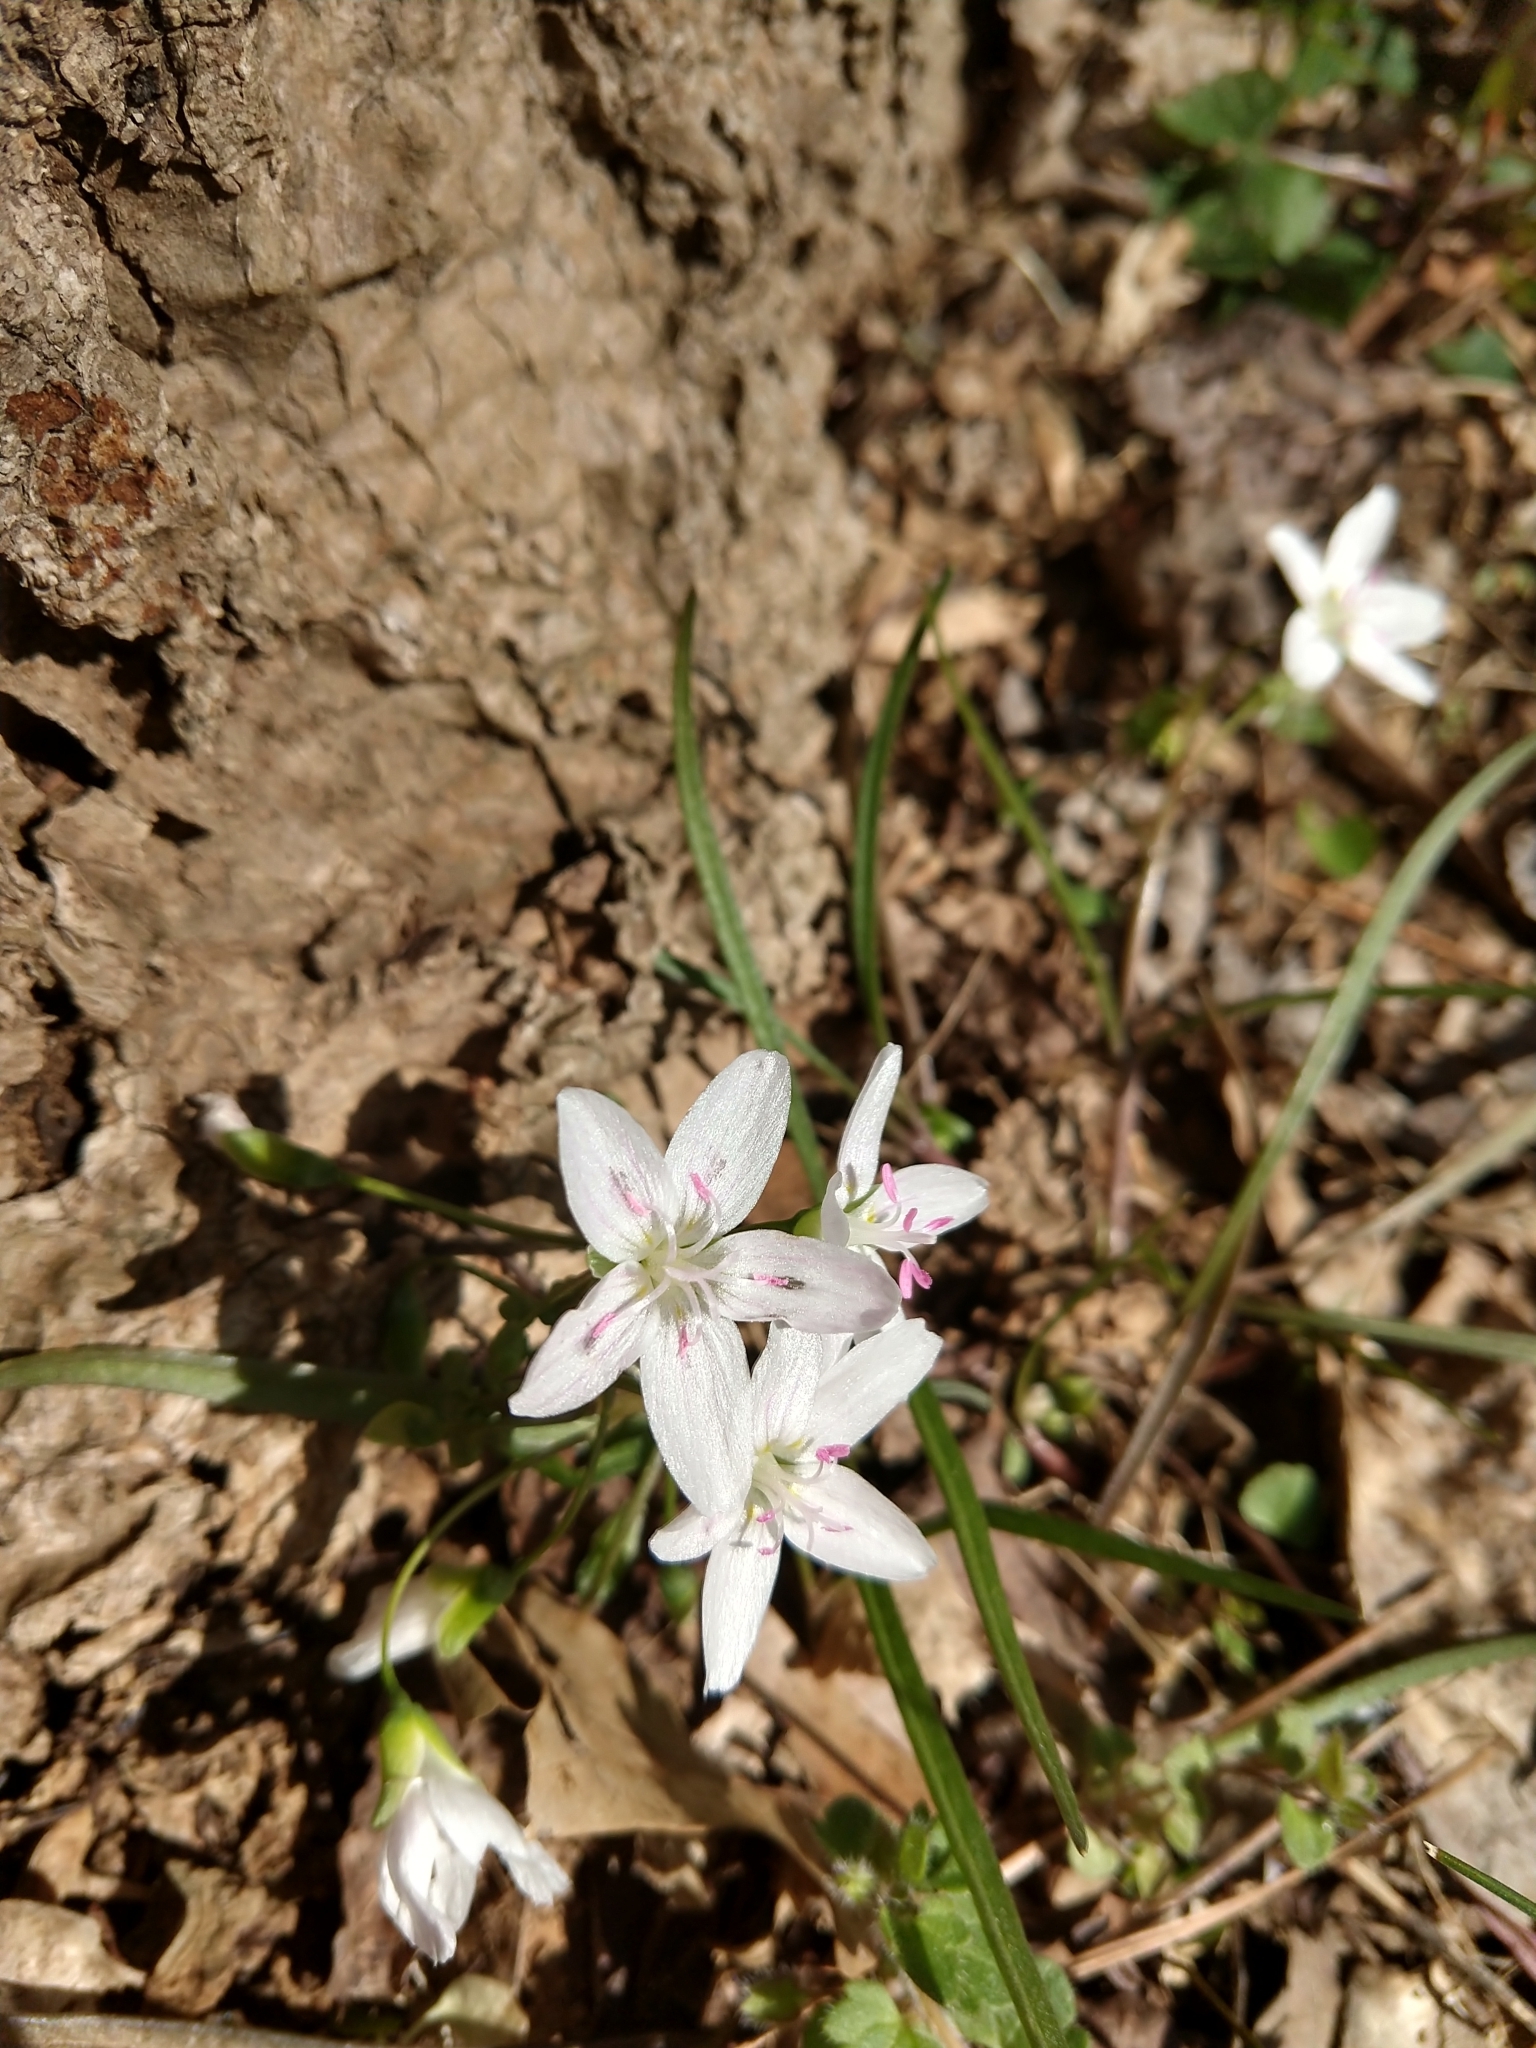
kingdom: Plantae
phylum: Tracheophyta
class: Magnoliopsida
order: Caryophyllales
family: Montiaceae
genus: Claytonia
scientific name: Claytonia virginica
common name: Virginia springbeauty
